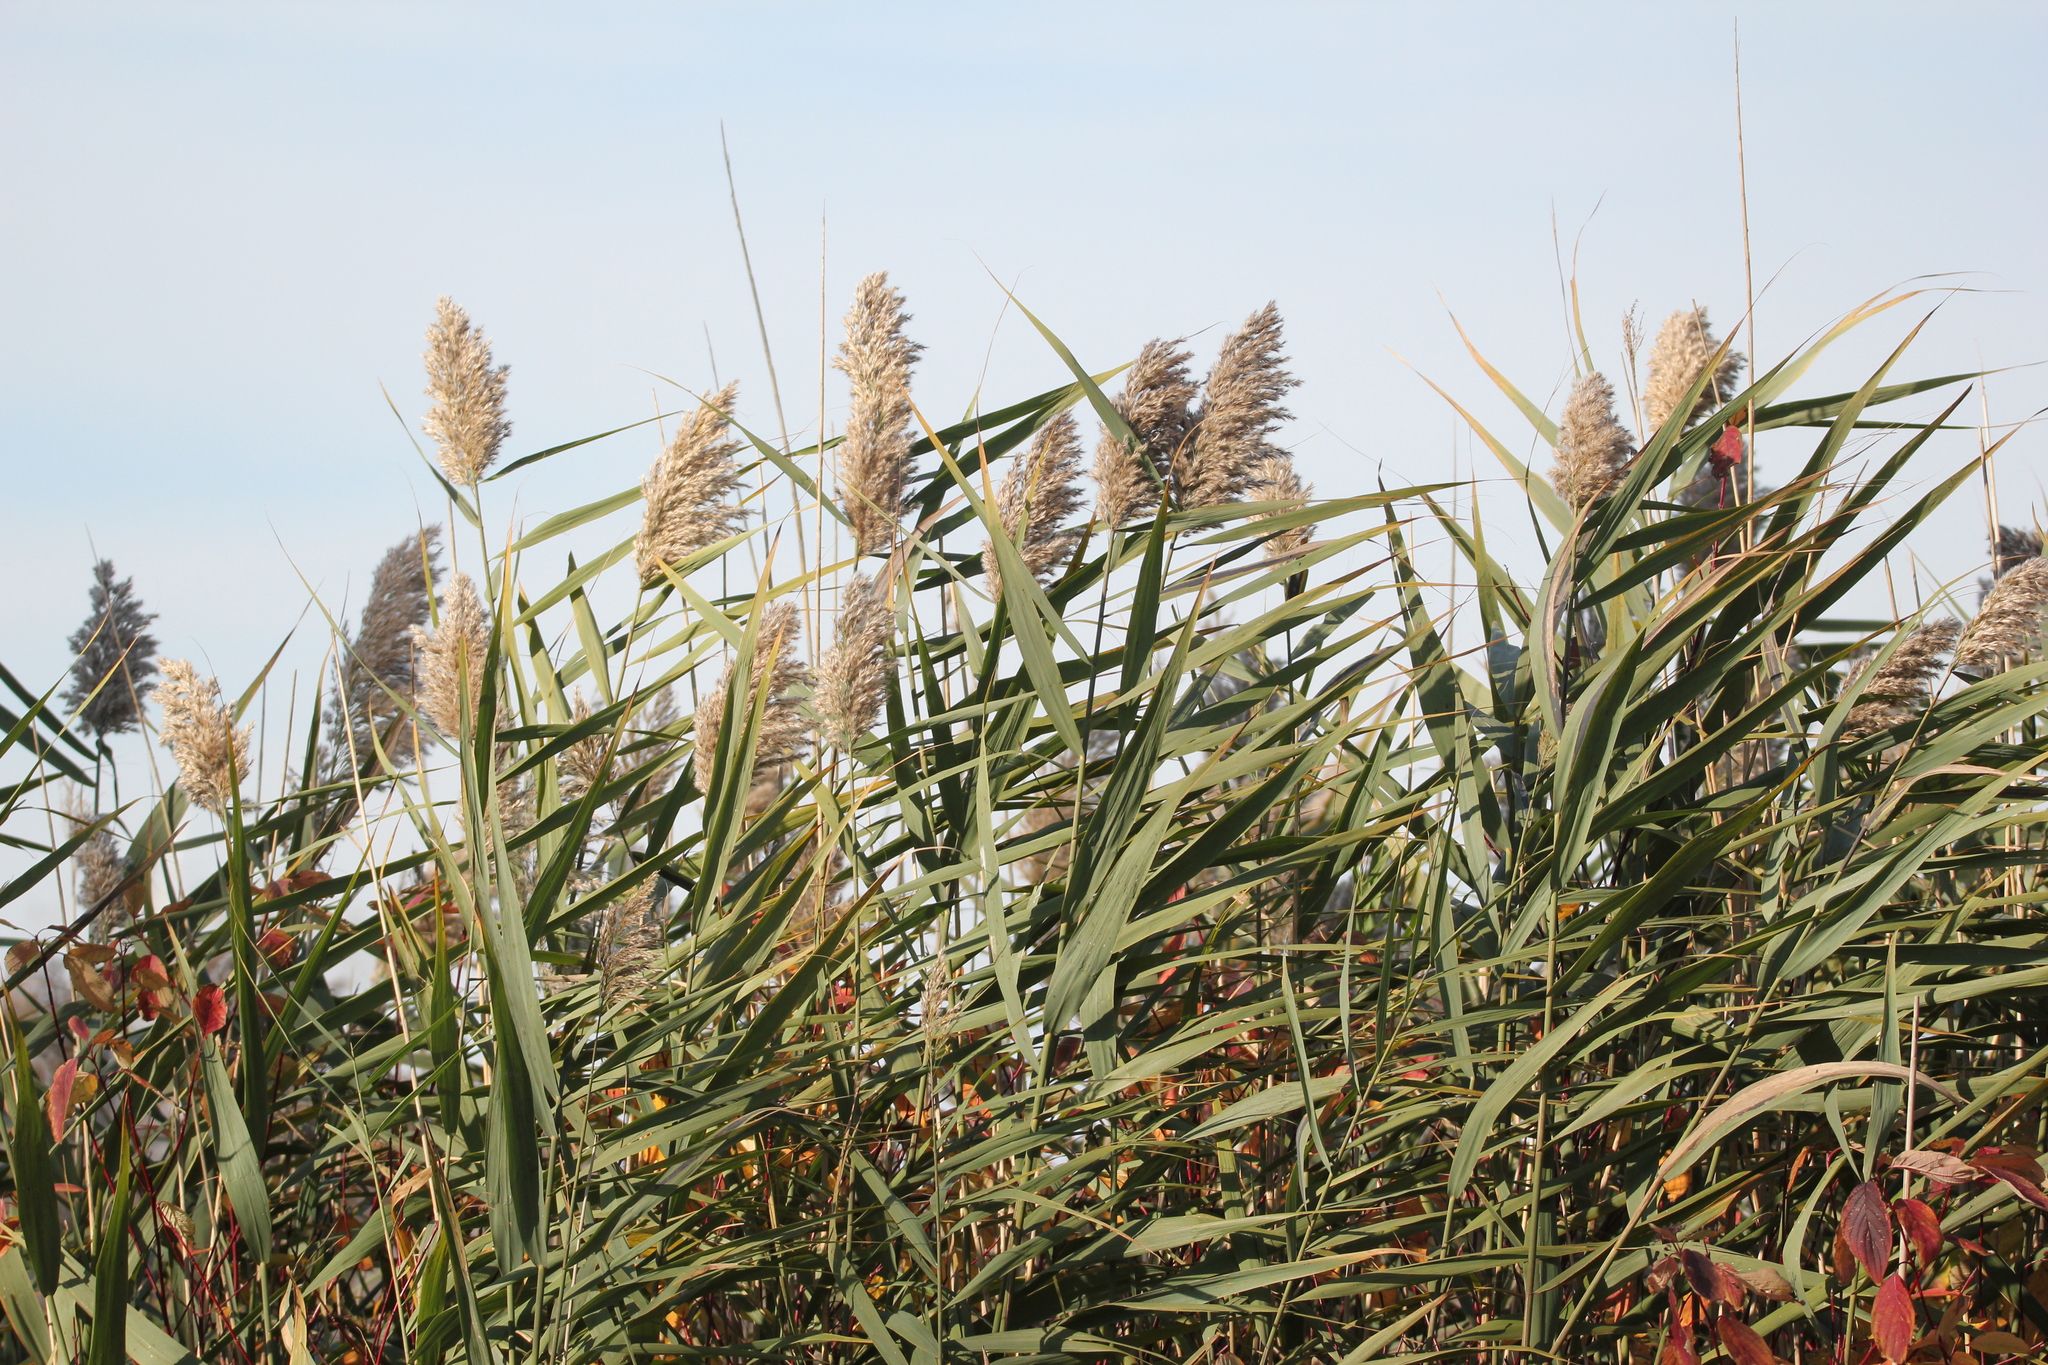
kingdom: Plantae
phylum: Tracheophyta
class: Liliopsida
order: Poales
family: Poaceae
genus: Phragmites
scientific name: Phragmites australis
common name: Common reed
